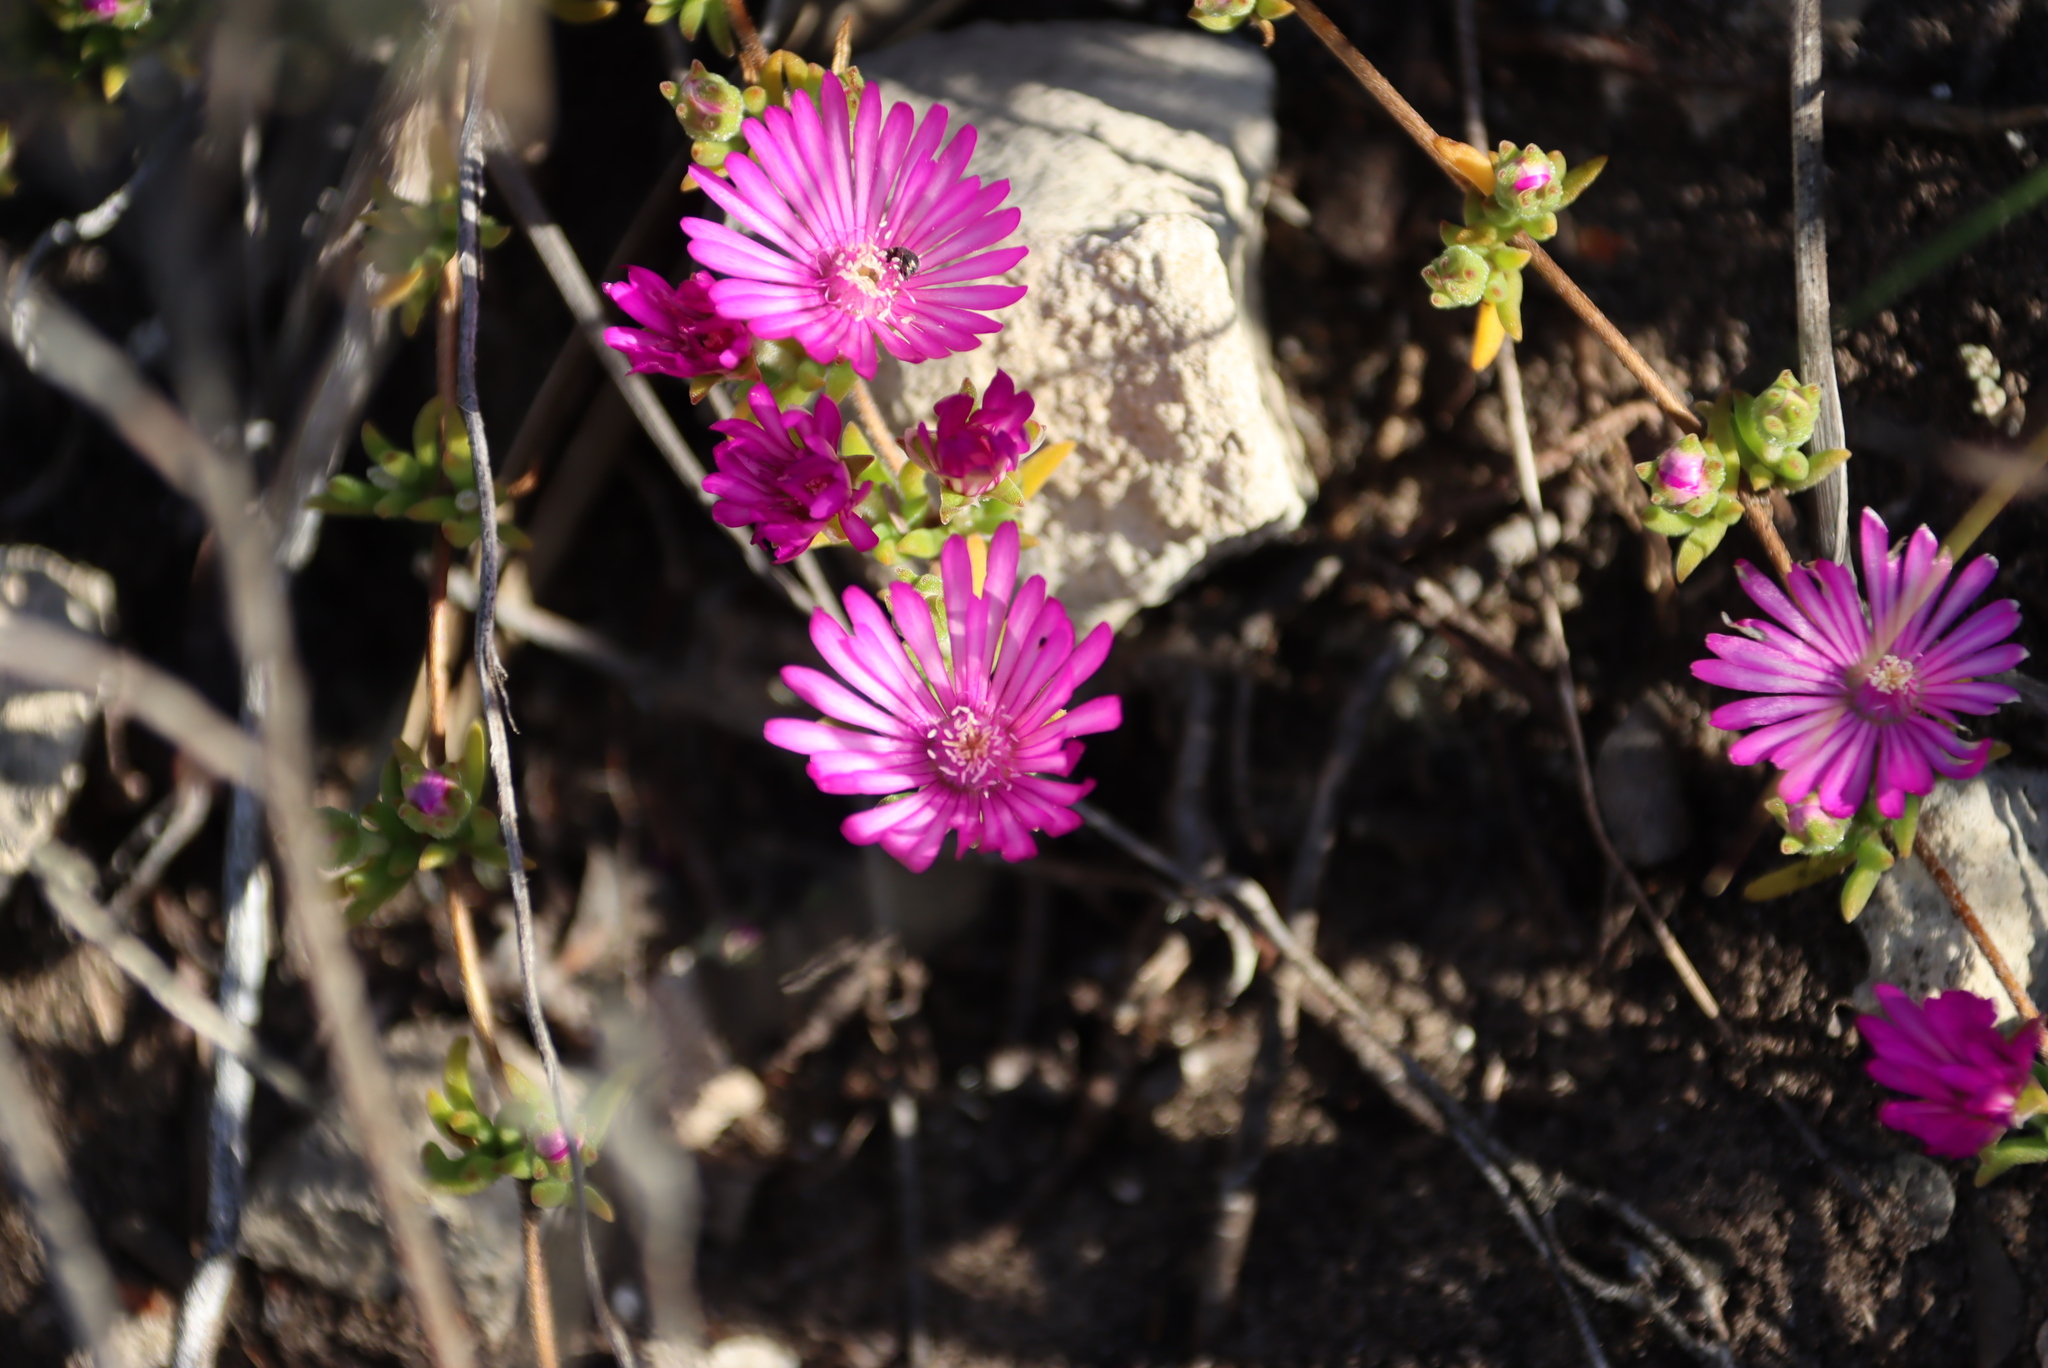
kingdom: Plantae
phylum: Tracheophyta
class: Magnoliopsida
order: Caryophyllales
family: Aizoaceae
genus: Drosanthemum
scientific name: Drosanthemum calcareum
